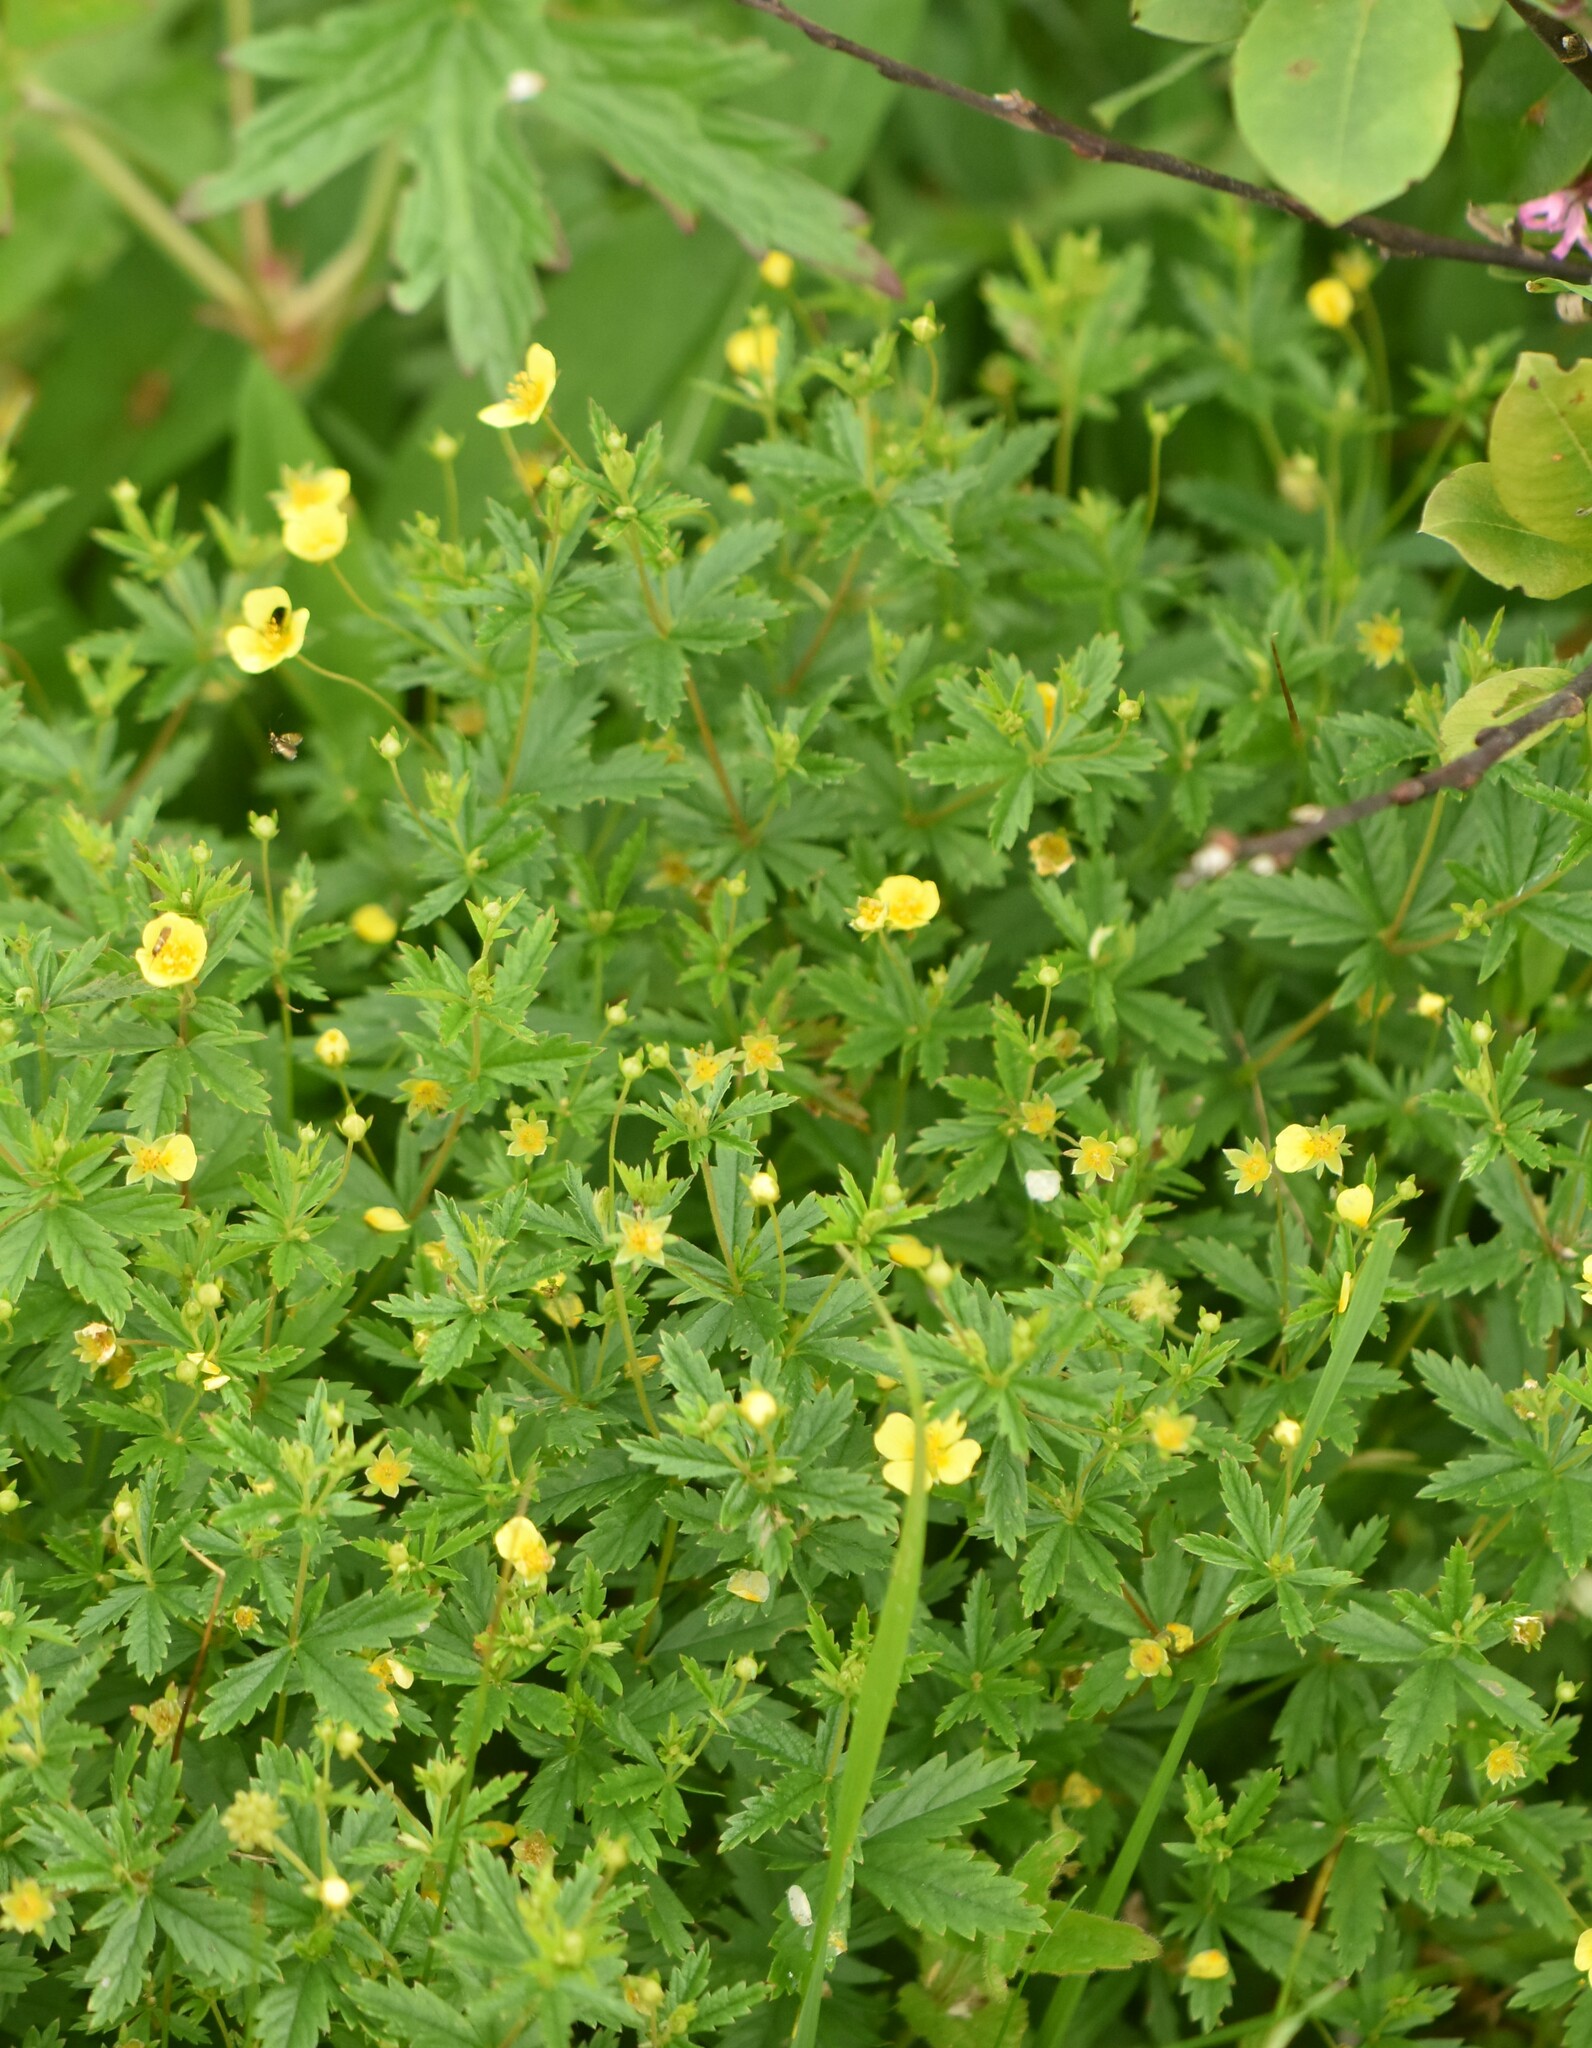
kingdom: Plantae
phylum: Tracheophyta
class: Magnoliopsida
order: Rosales
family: Rosaceae
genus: Potentilla
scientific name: Potentilla erecta
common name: Tormentil
